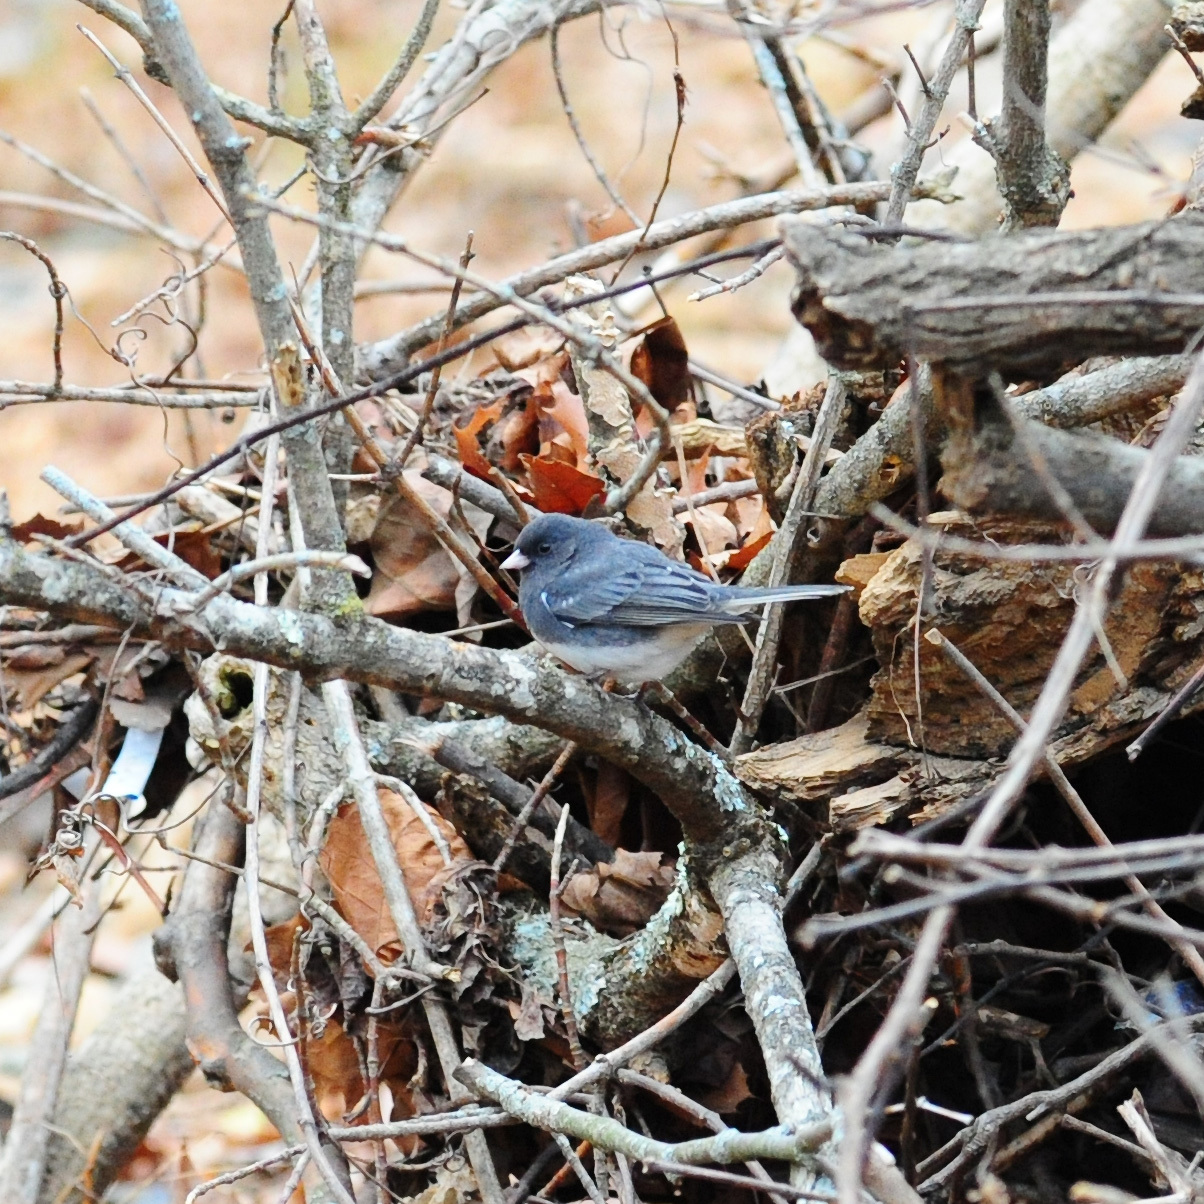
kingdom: Animalia
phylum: Chordata
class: Aves
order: Passeriformes
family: Passerellidae
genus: Junco
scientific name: Junco hyemalis
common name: Dark-eyed junco
